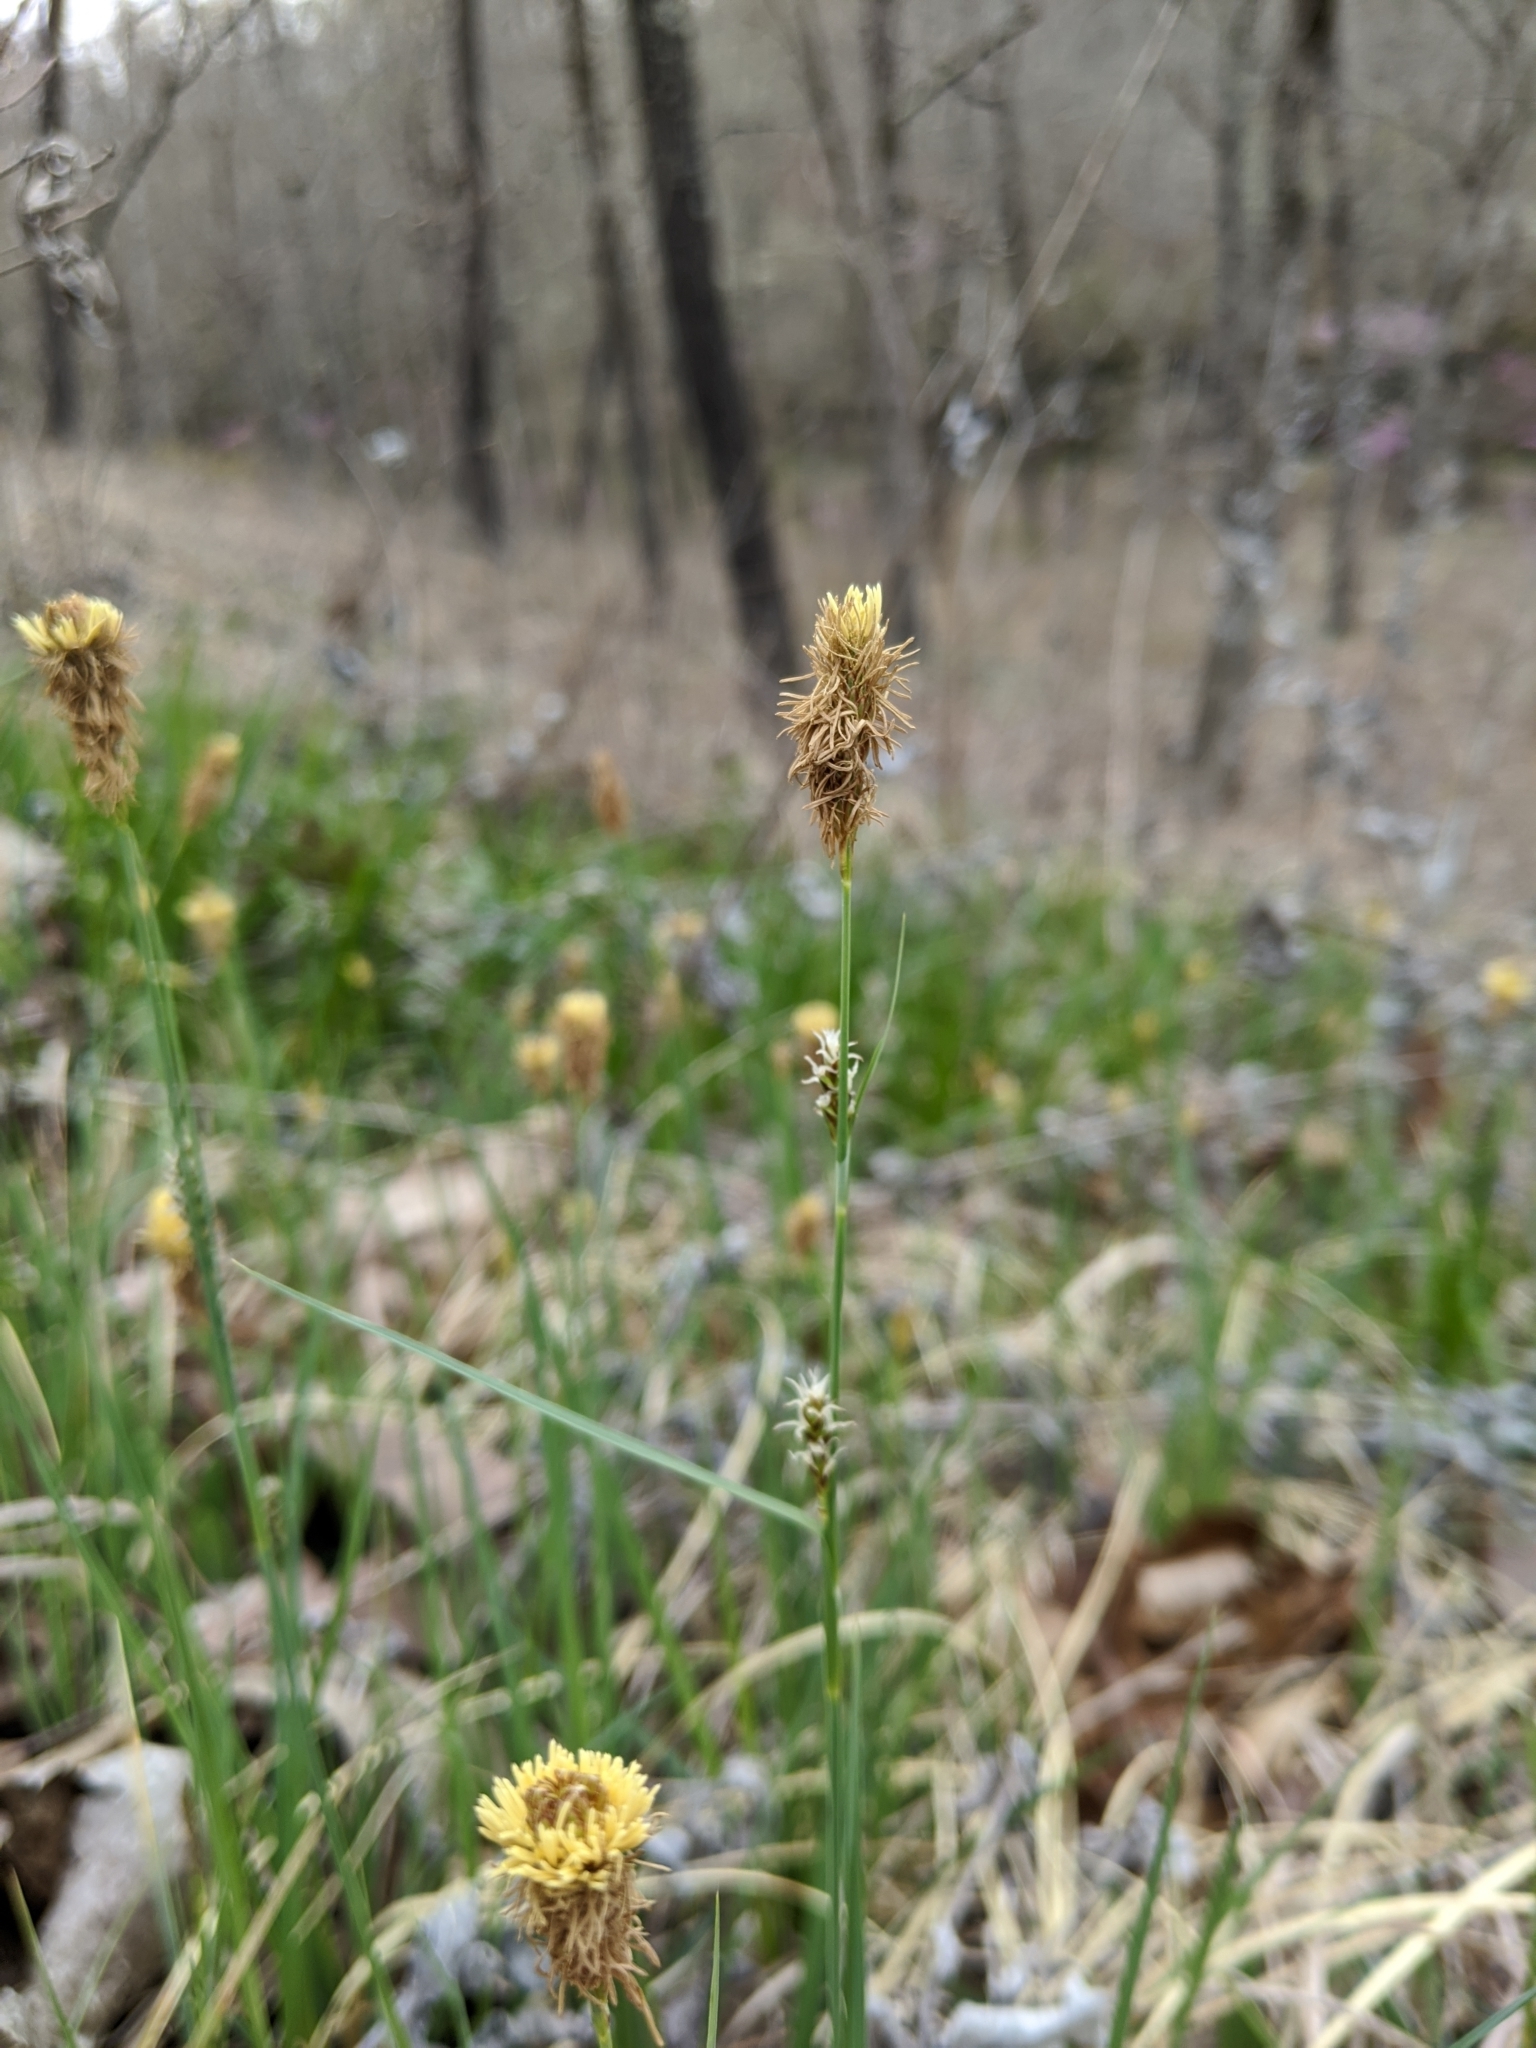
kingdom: Plantae
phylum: Tracheophyta
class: Liliopsida
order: Poales
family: Cyperaceae
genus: Carex
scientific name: Carex meadii
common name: Mead's sedge
